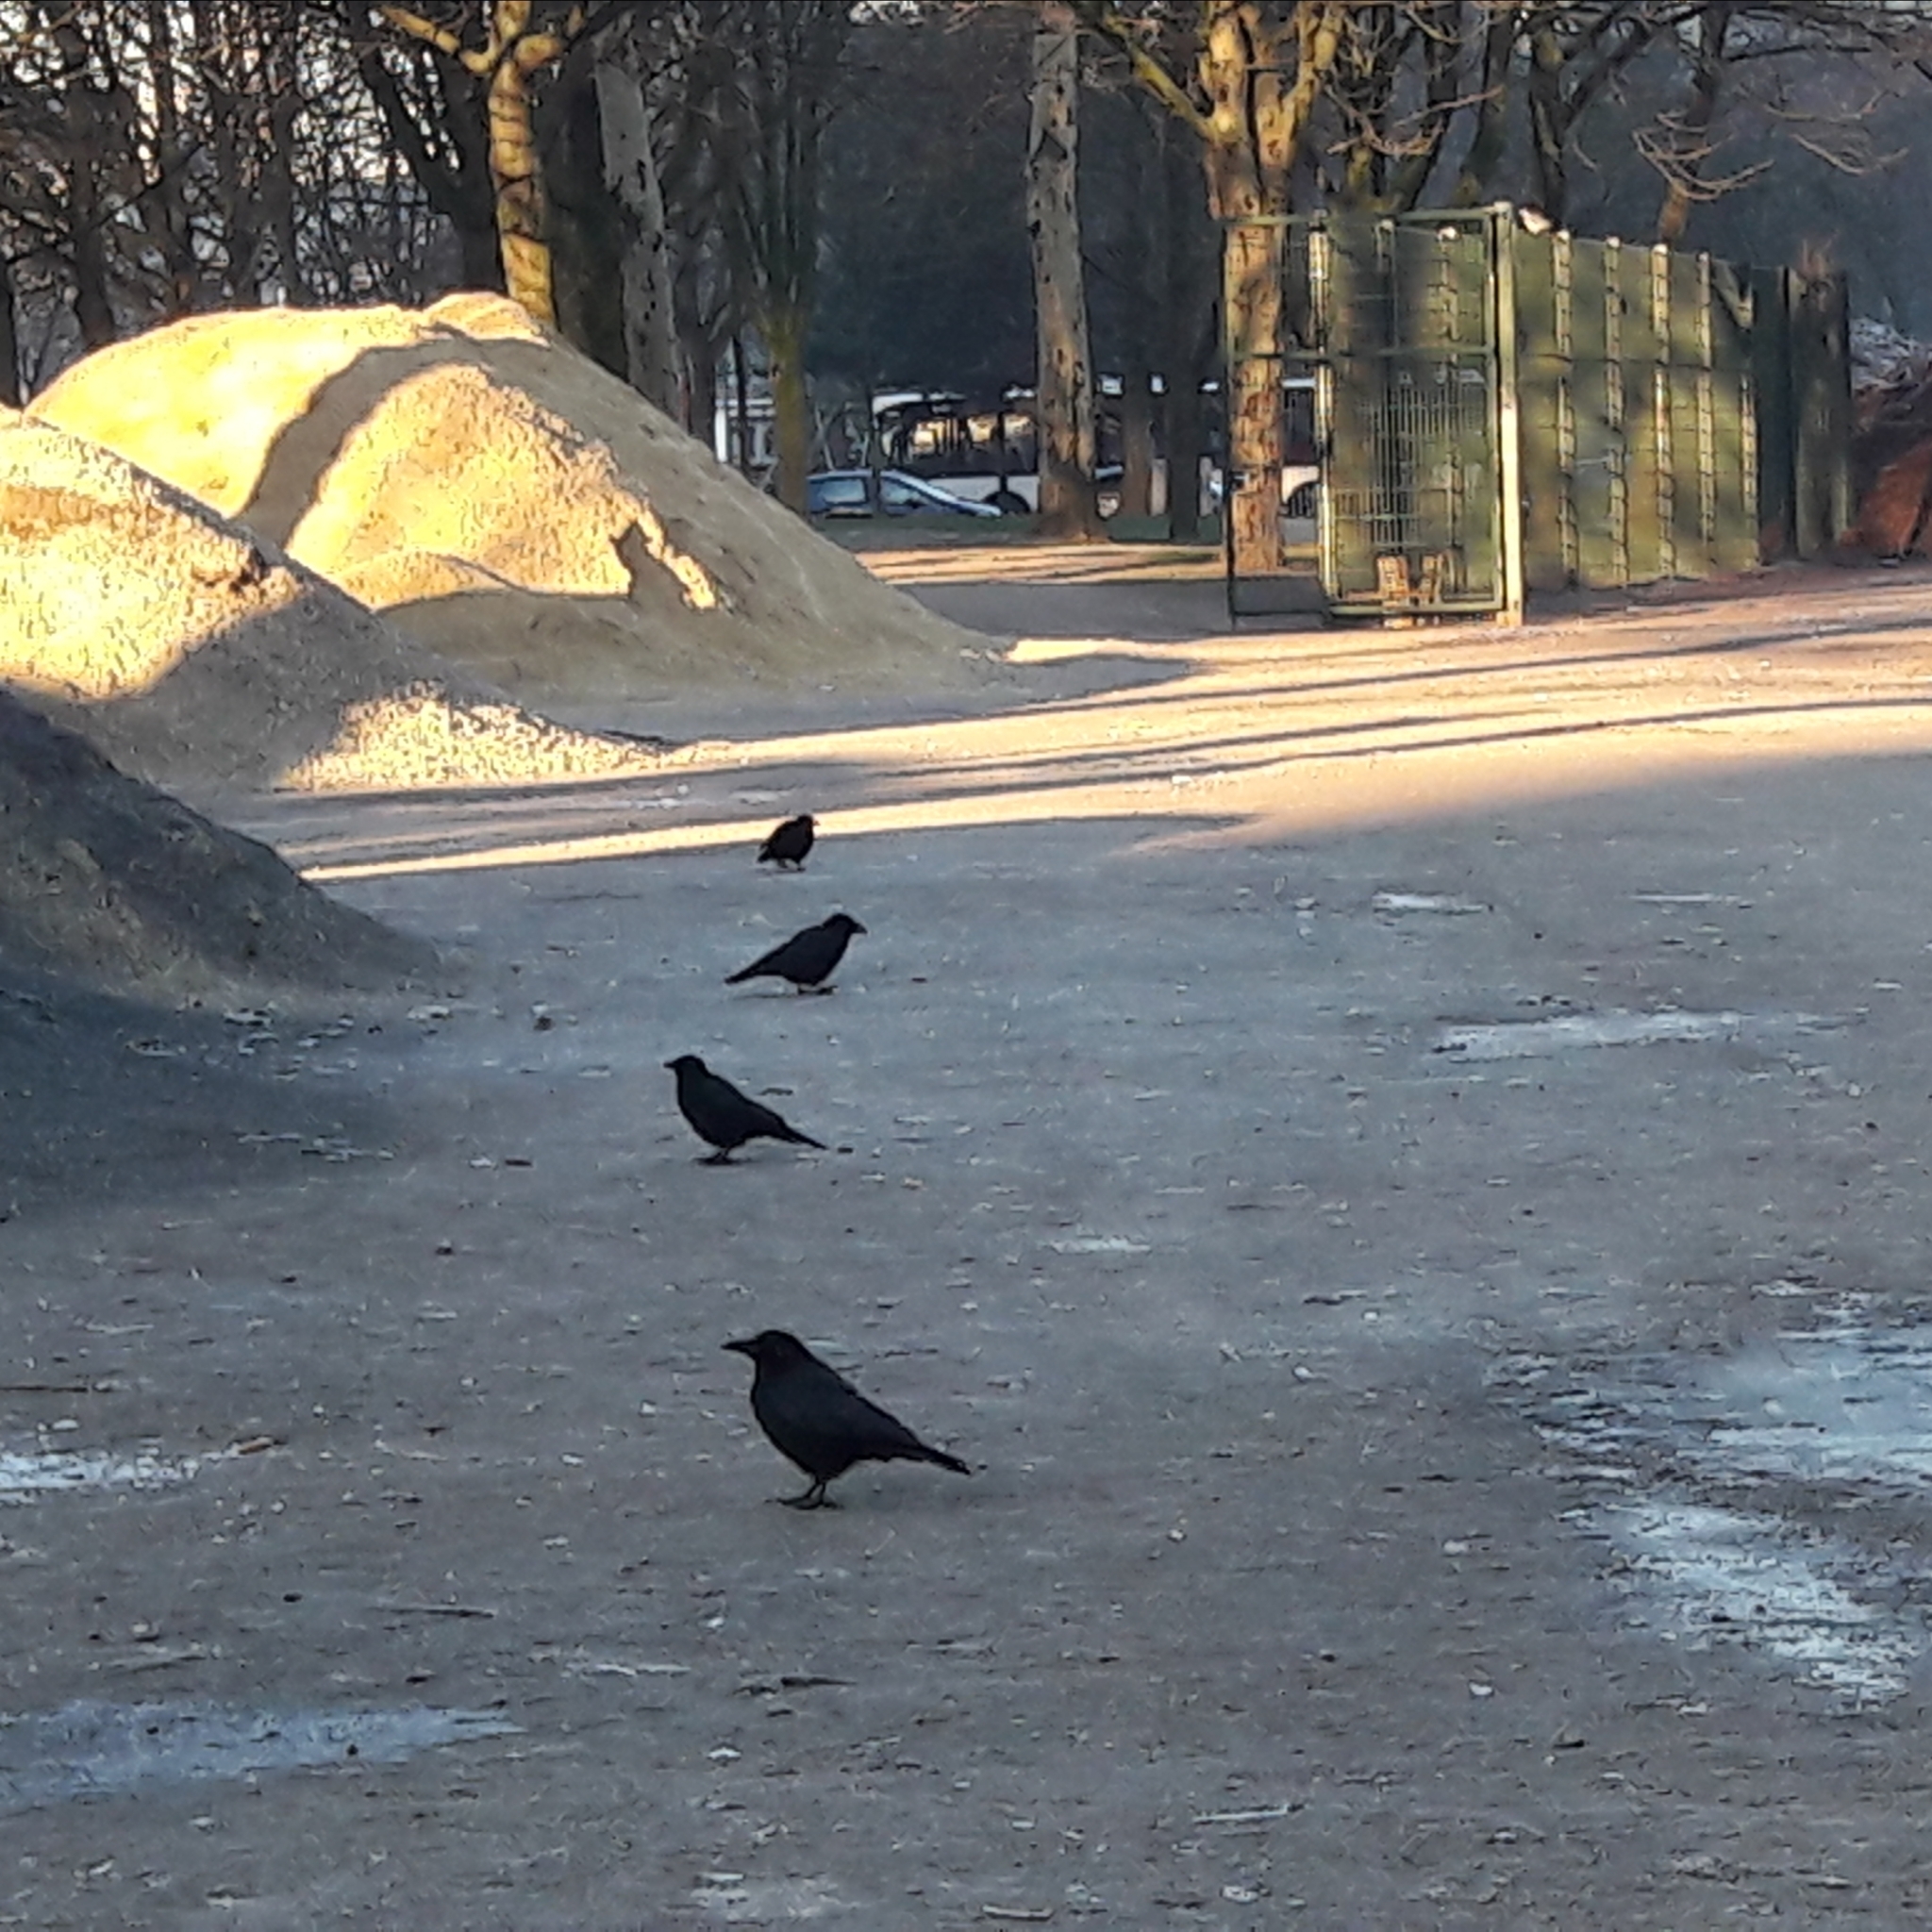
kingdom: Animalia
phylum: Chordata
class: Aves
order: Passeriformes
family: Corvidae
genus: Corvus
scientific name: Corvus corone
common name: Carrion crow
